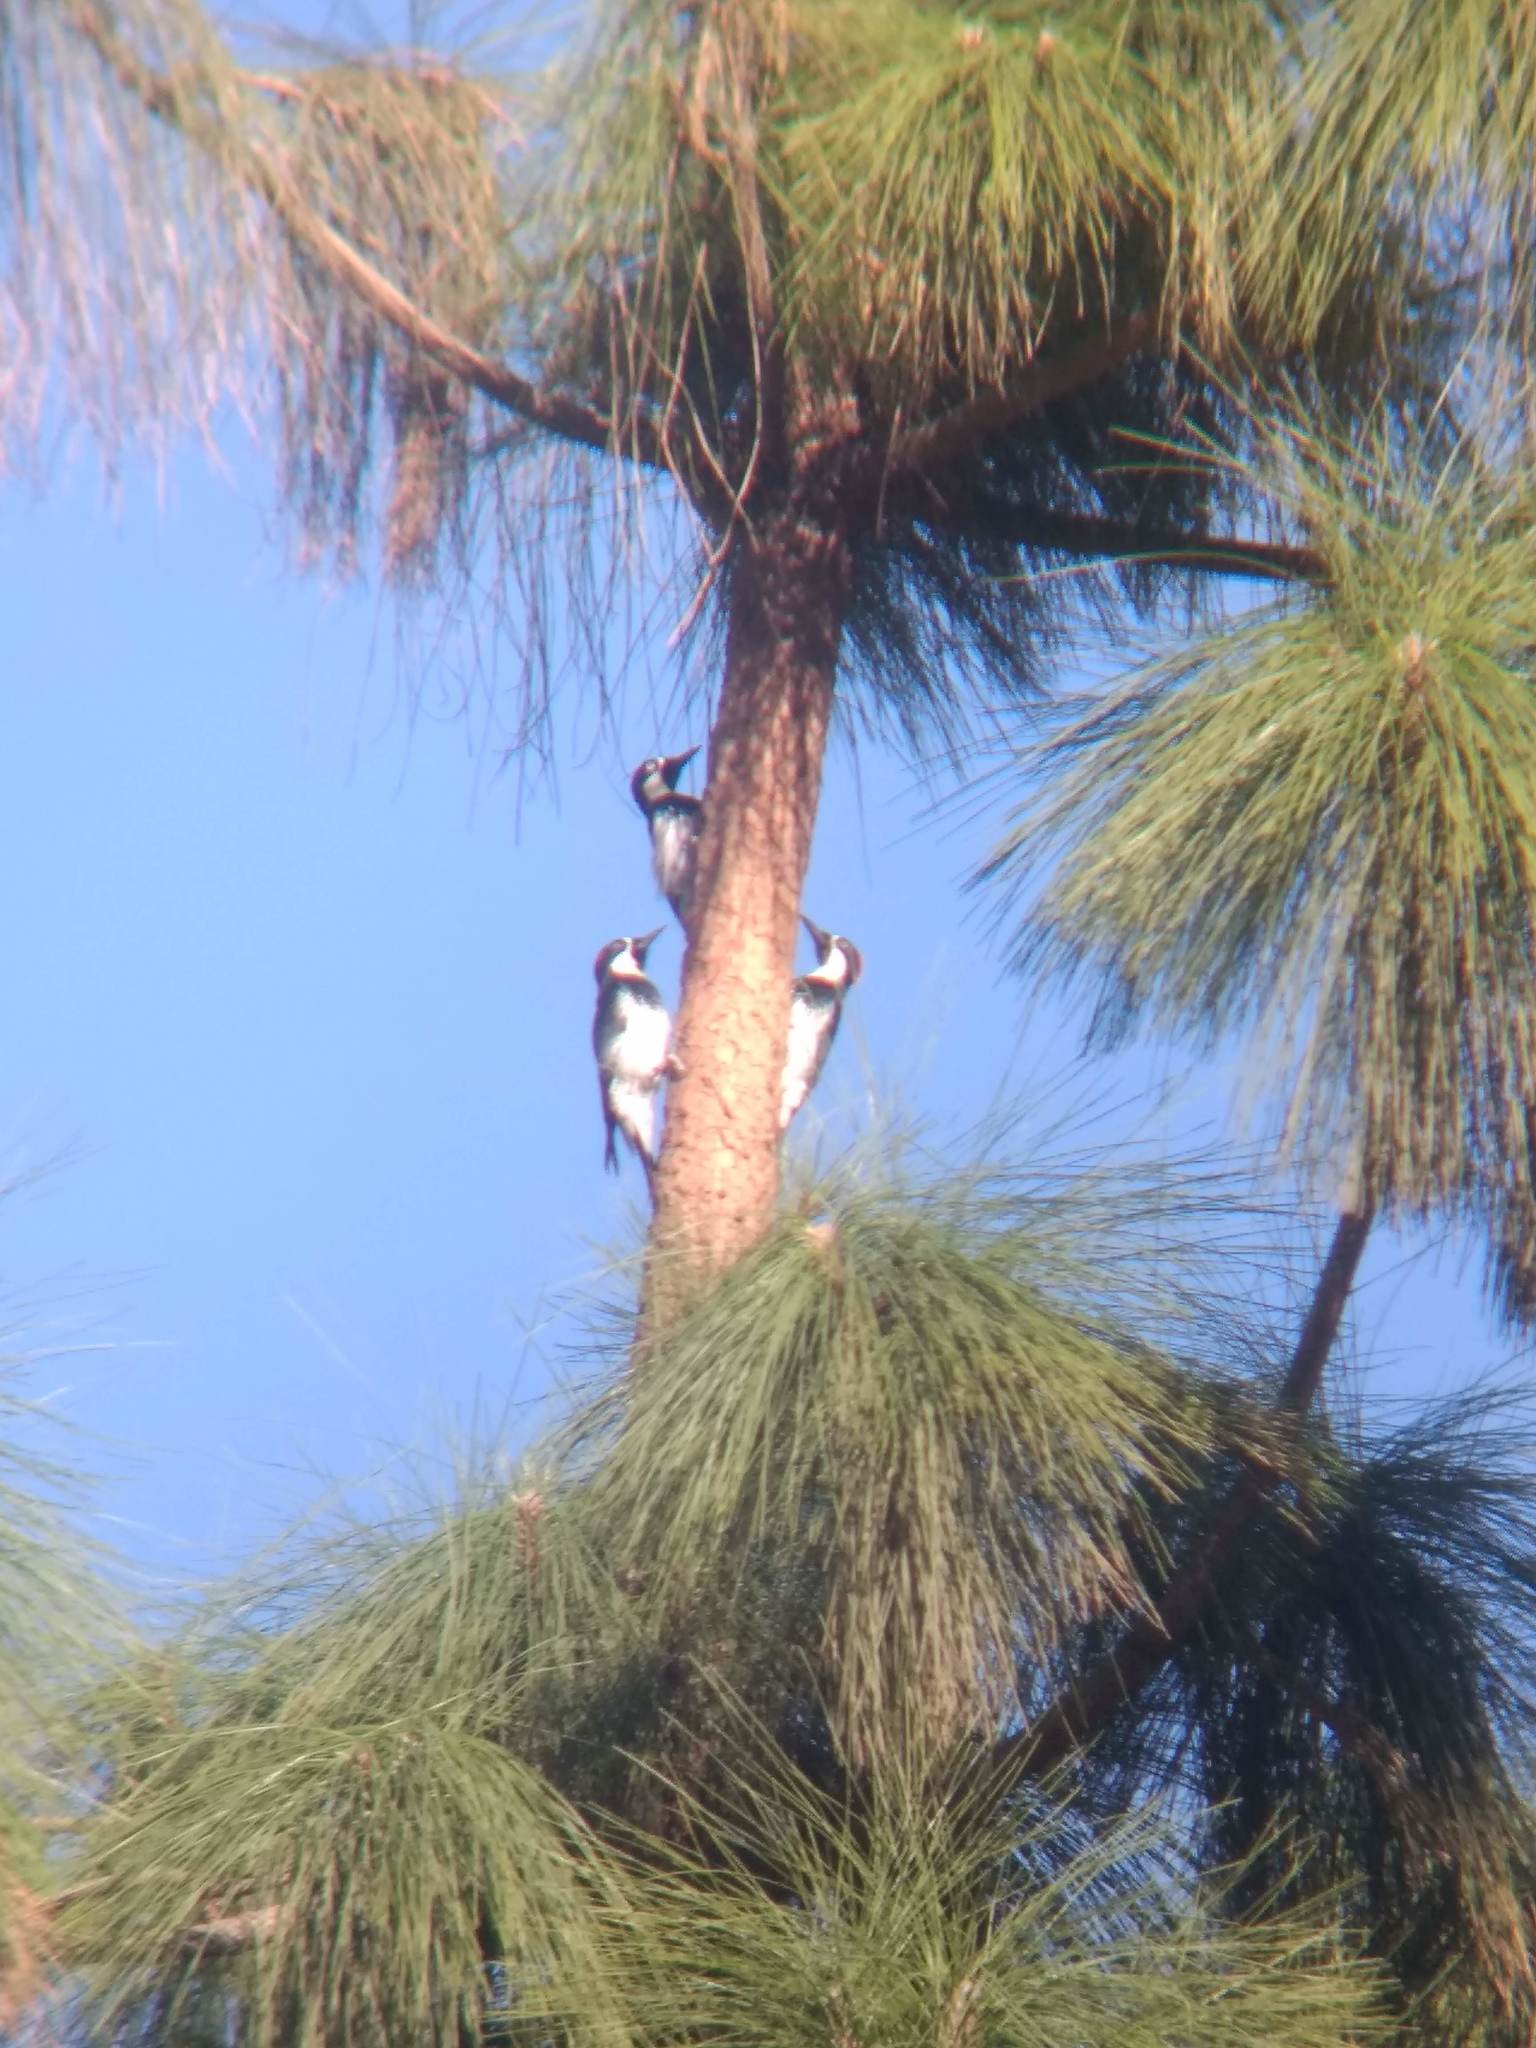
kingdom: Animalia
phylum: Chordata
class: Aves
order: Piciformes
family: Picidae
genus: Melanerpes
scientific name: Melanerpes formicivorus
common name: Acorn woodpecker
